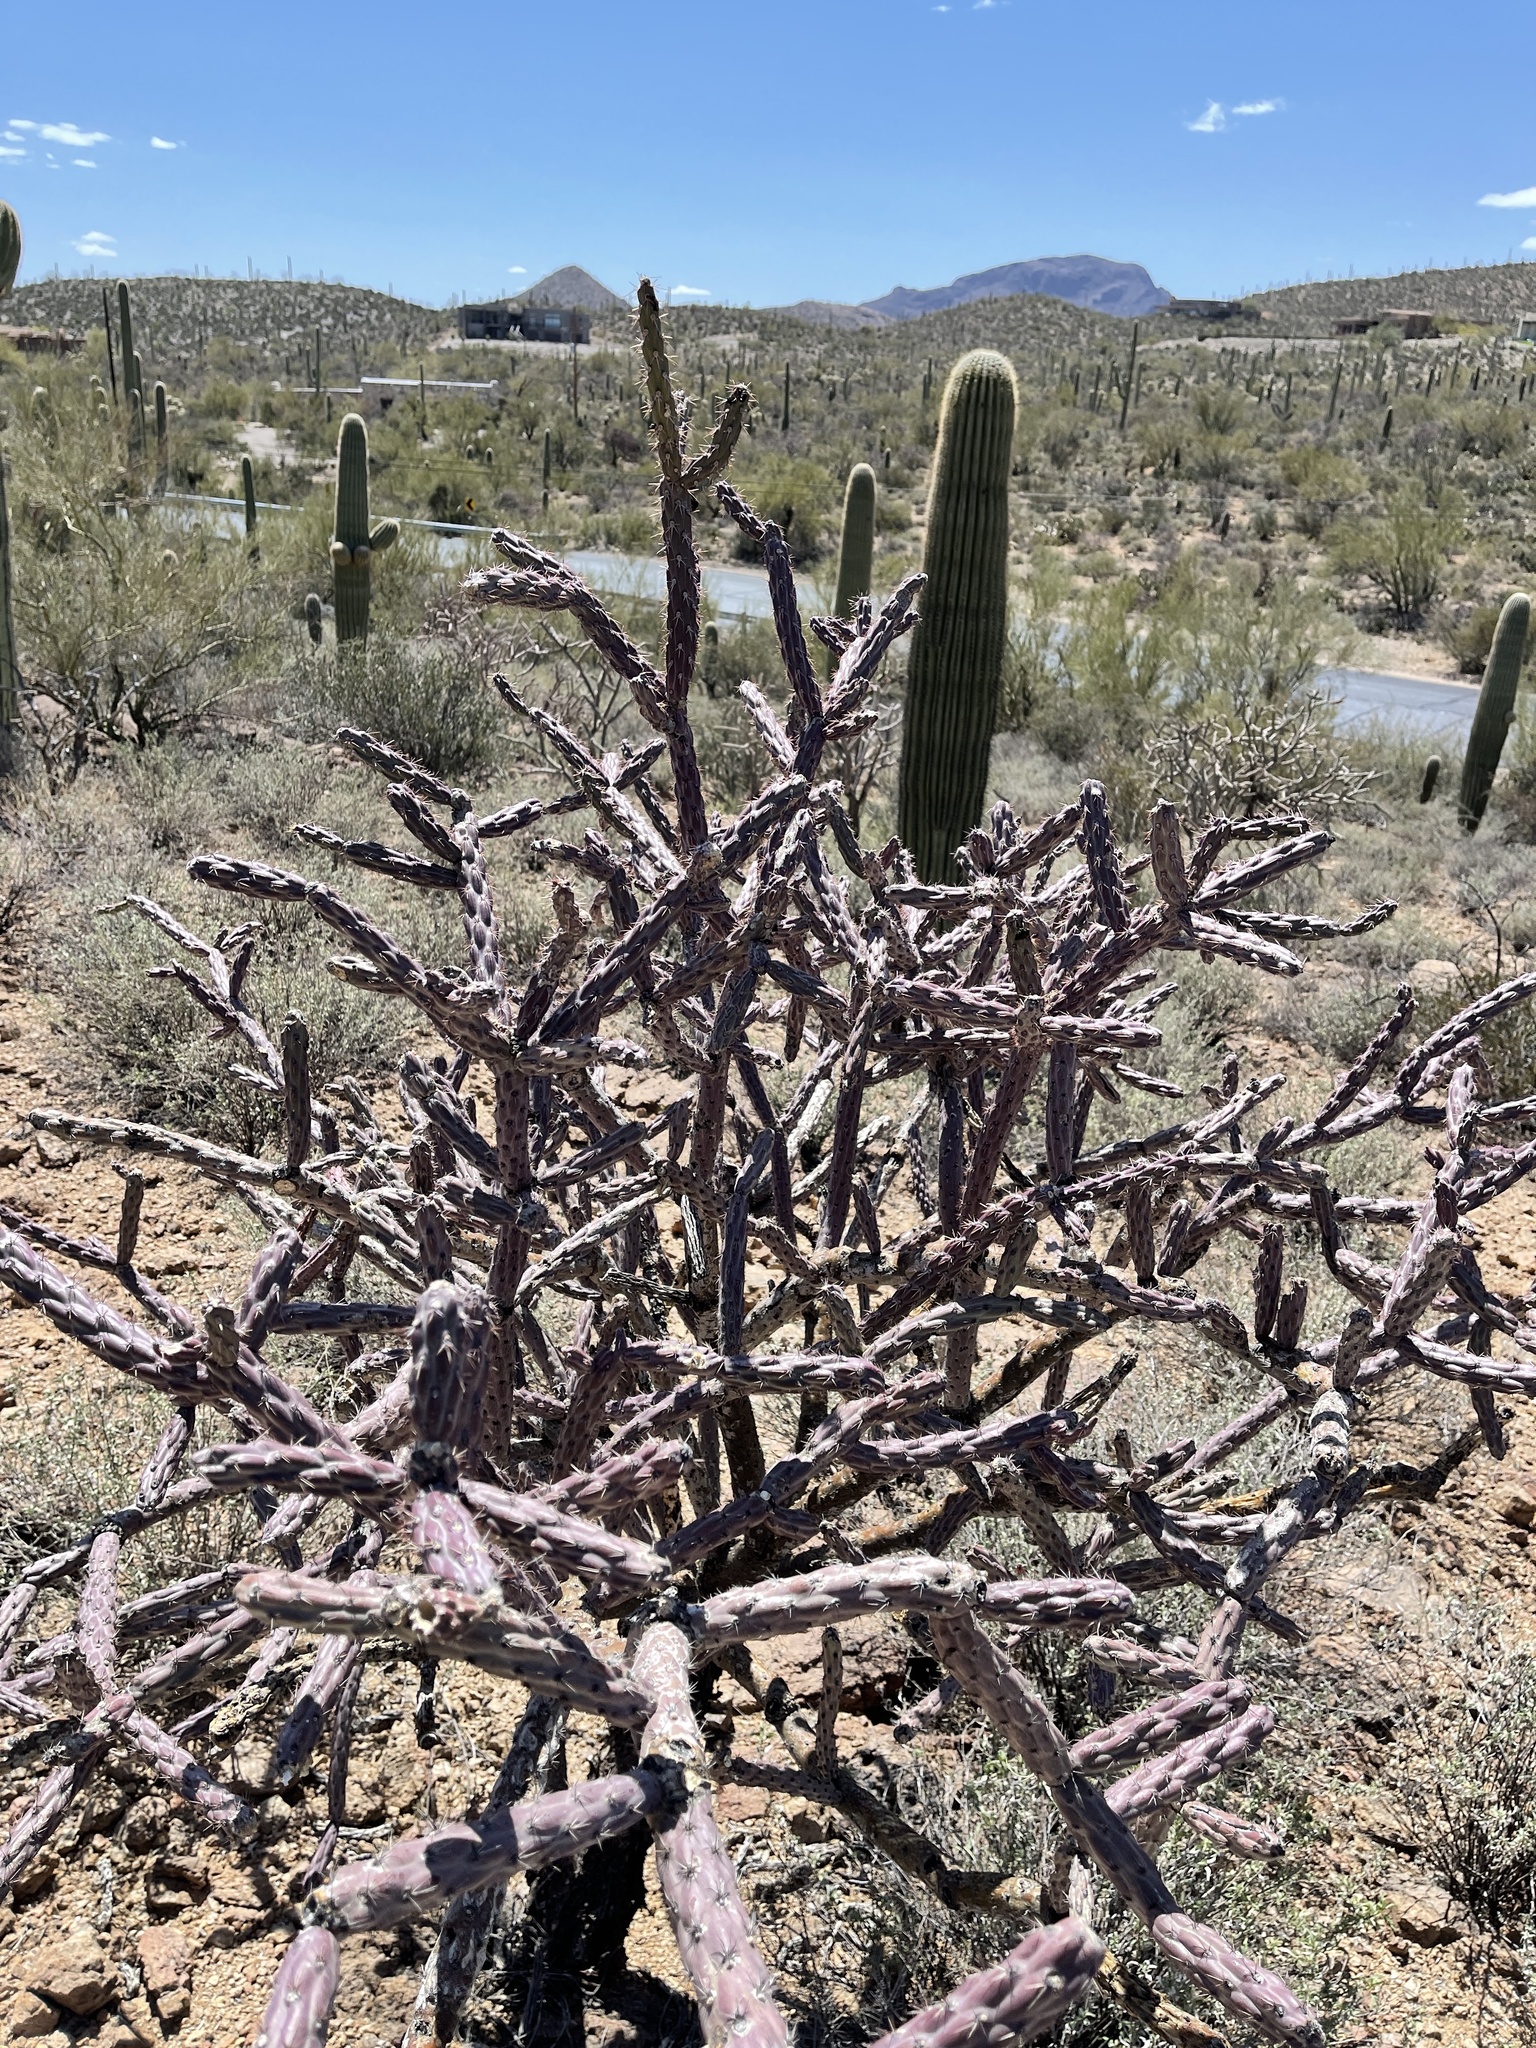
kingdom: Plantae
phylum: Tracheophyta
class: Magnoliopsida
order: Caryophyllales
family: Cactaceae
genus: Cylindropuntia
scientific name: Cylindropuntia thurberi
